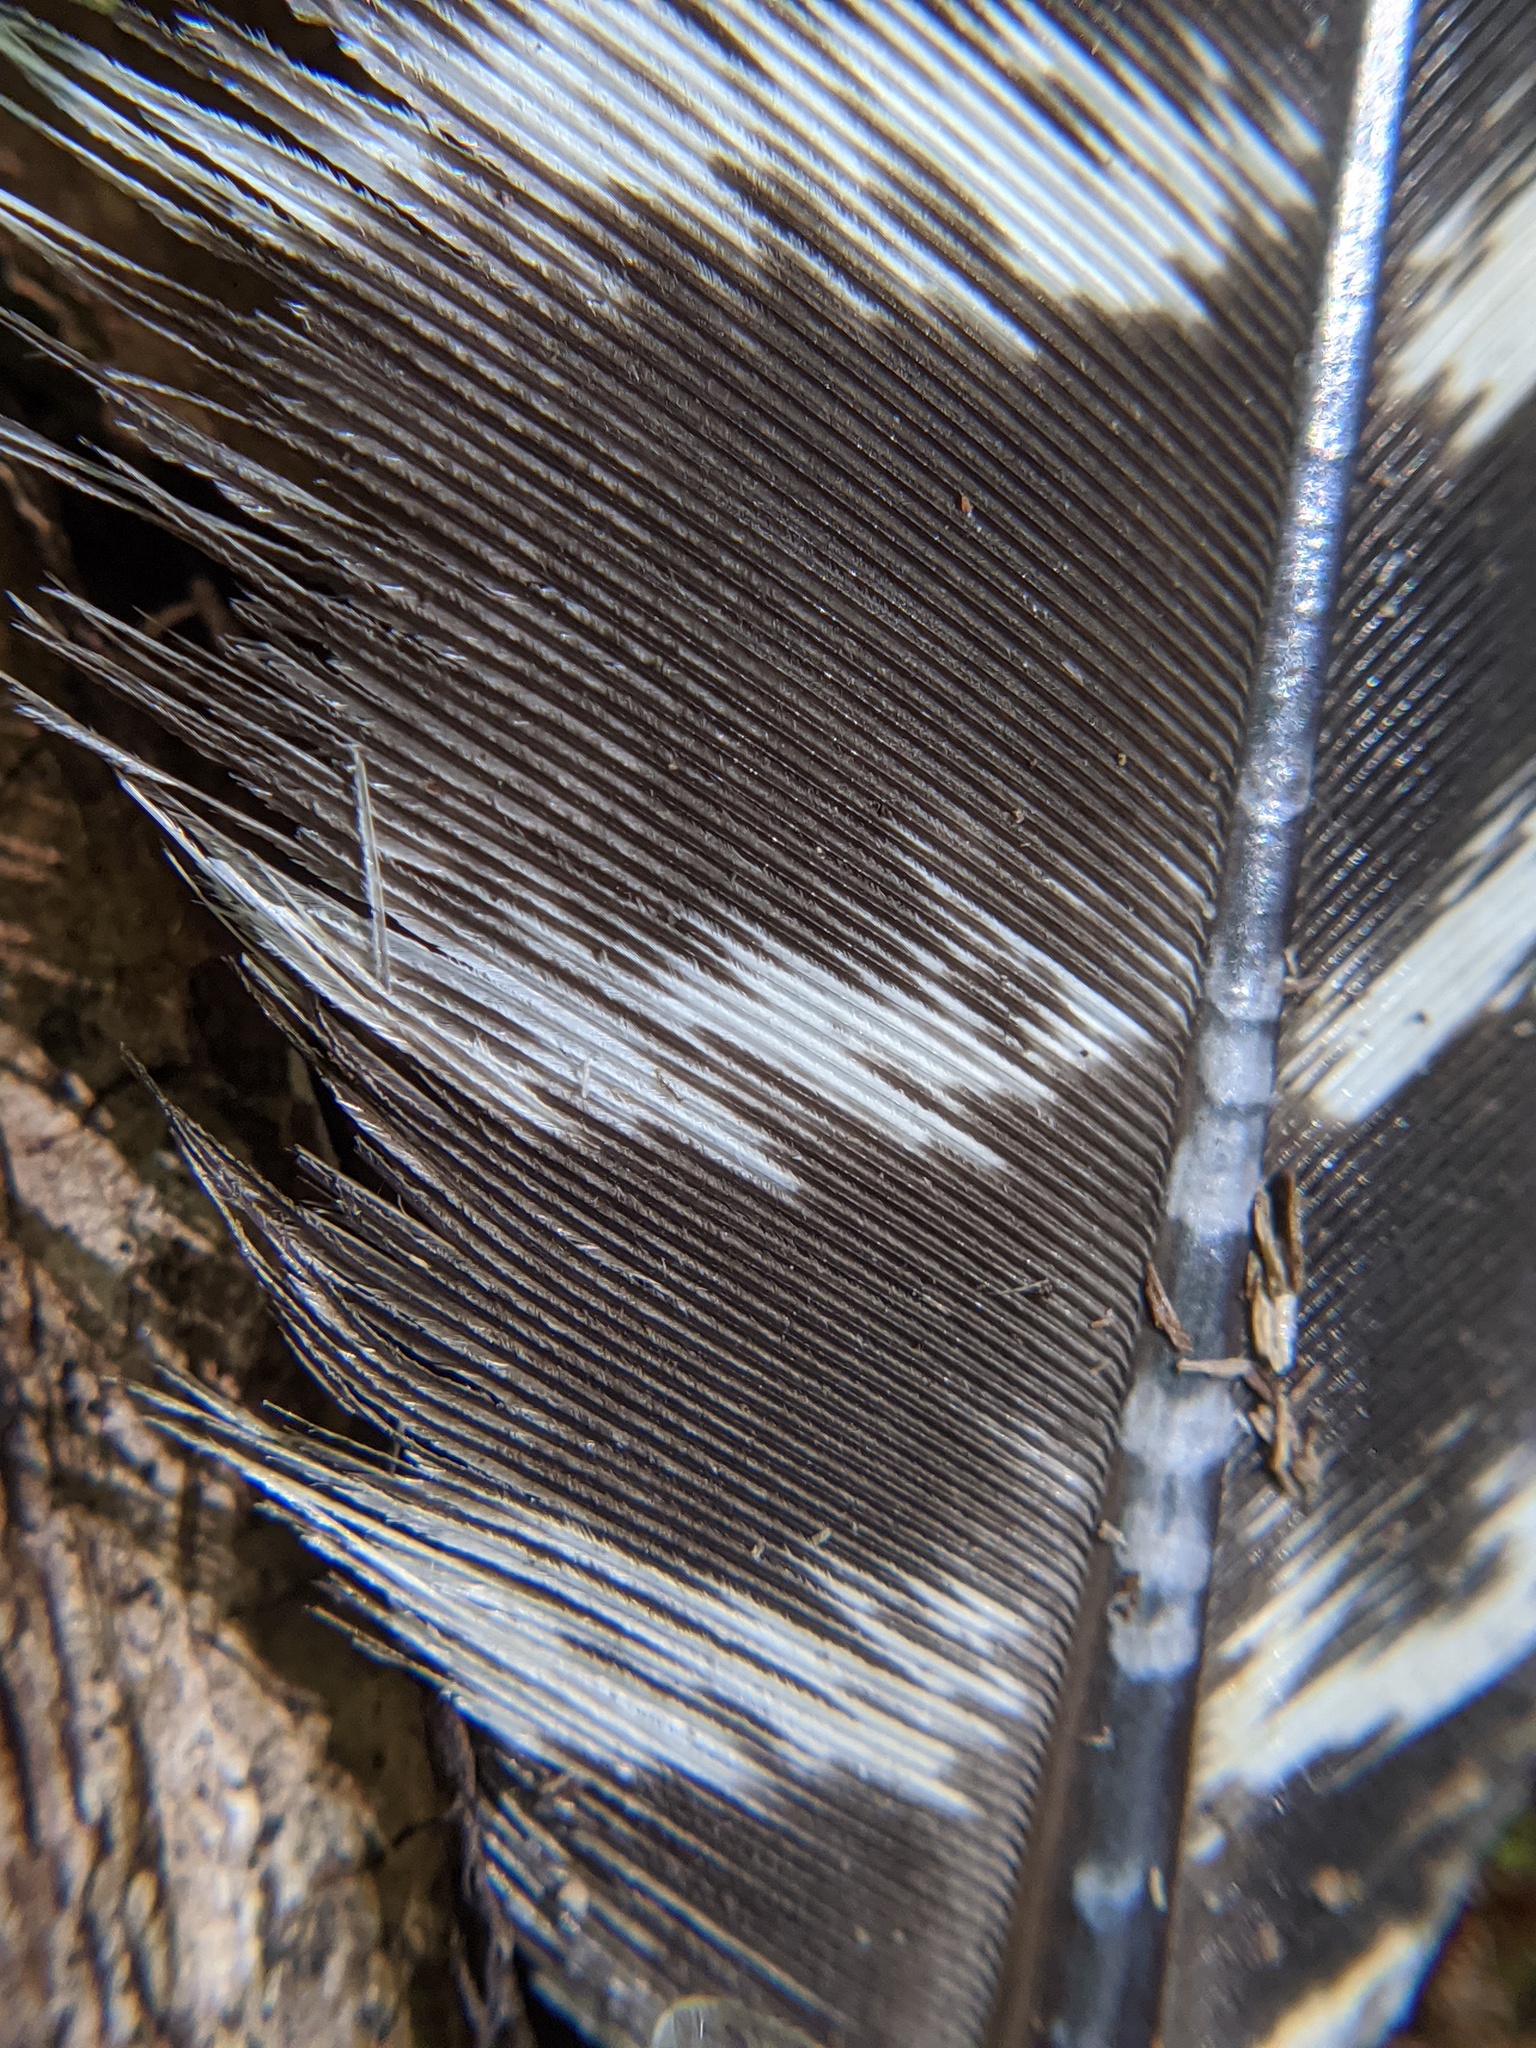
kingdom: Animalia
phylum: Chordata
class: Aves
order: Galliformes
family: Phasianidae
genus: Meleagris
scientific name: Meleagris gallopavo
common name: Wild turkey
